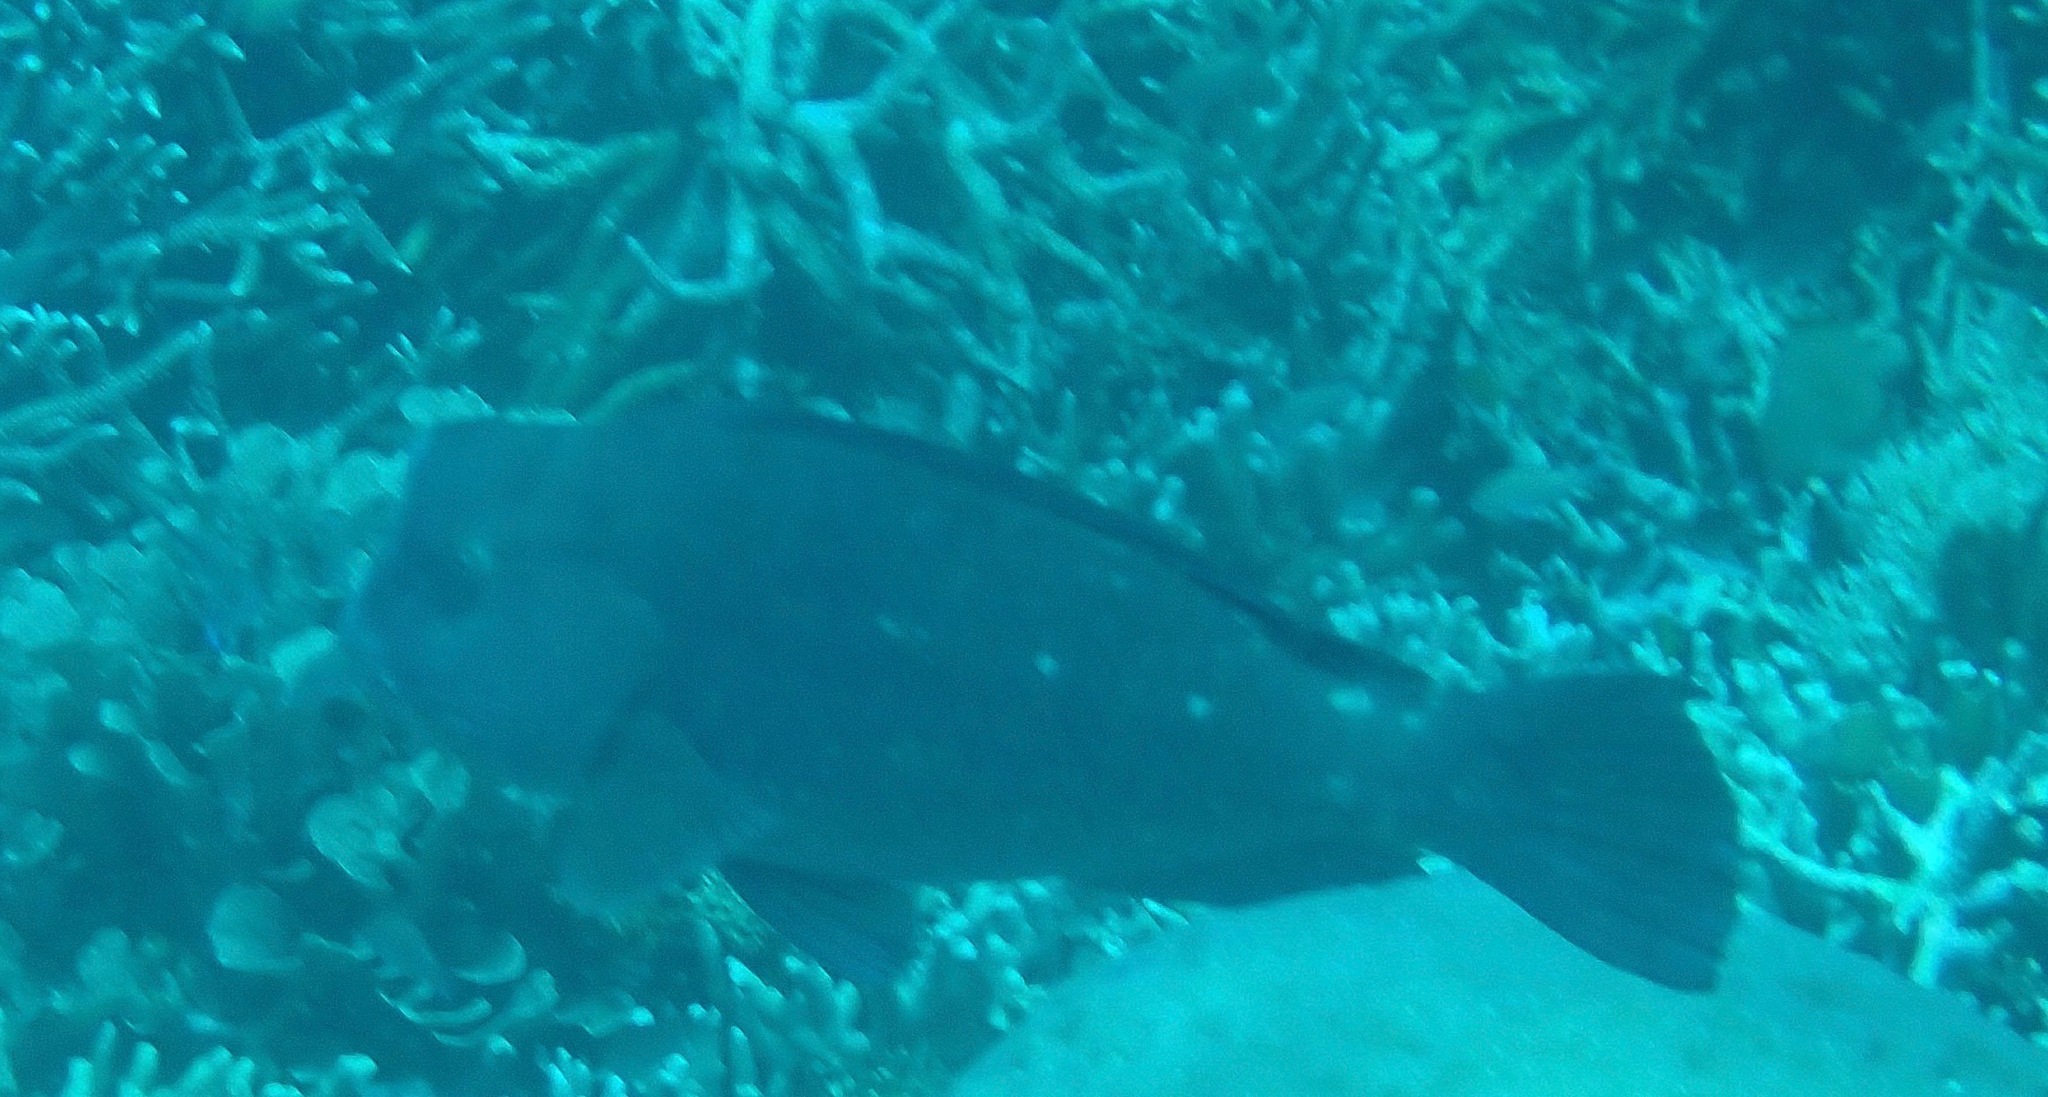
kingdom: Animalia
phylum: Chordata
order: Perciformes
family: Scaridae
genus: Bolbometopon
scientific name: Bolbometopon muricatum
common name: Humphead parrotfish
